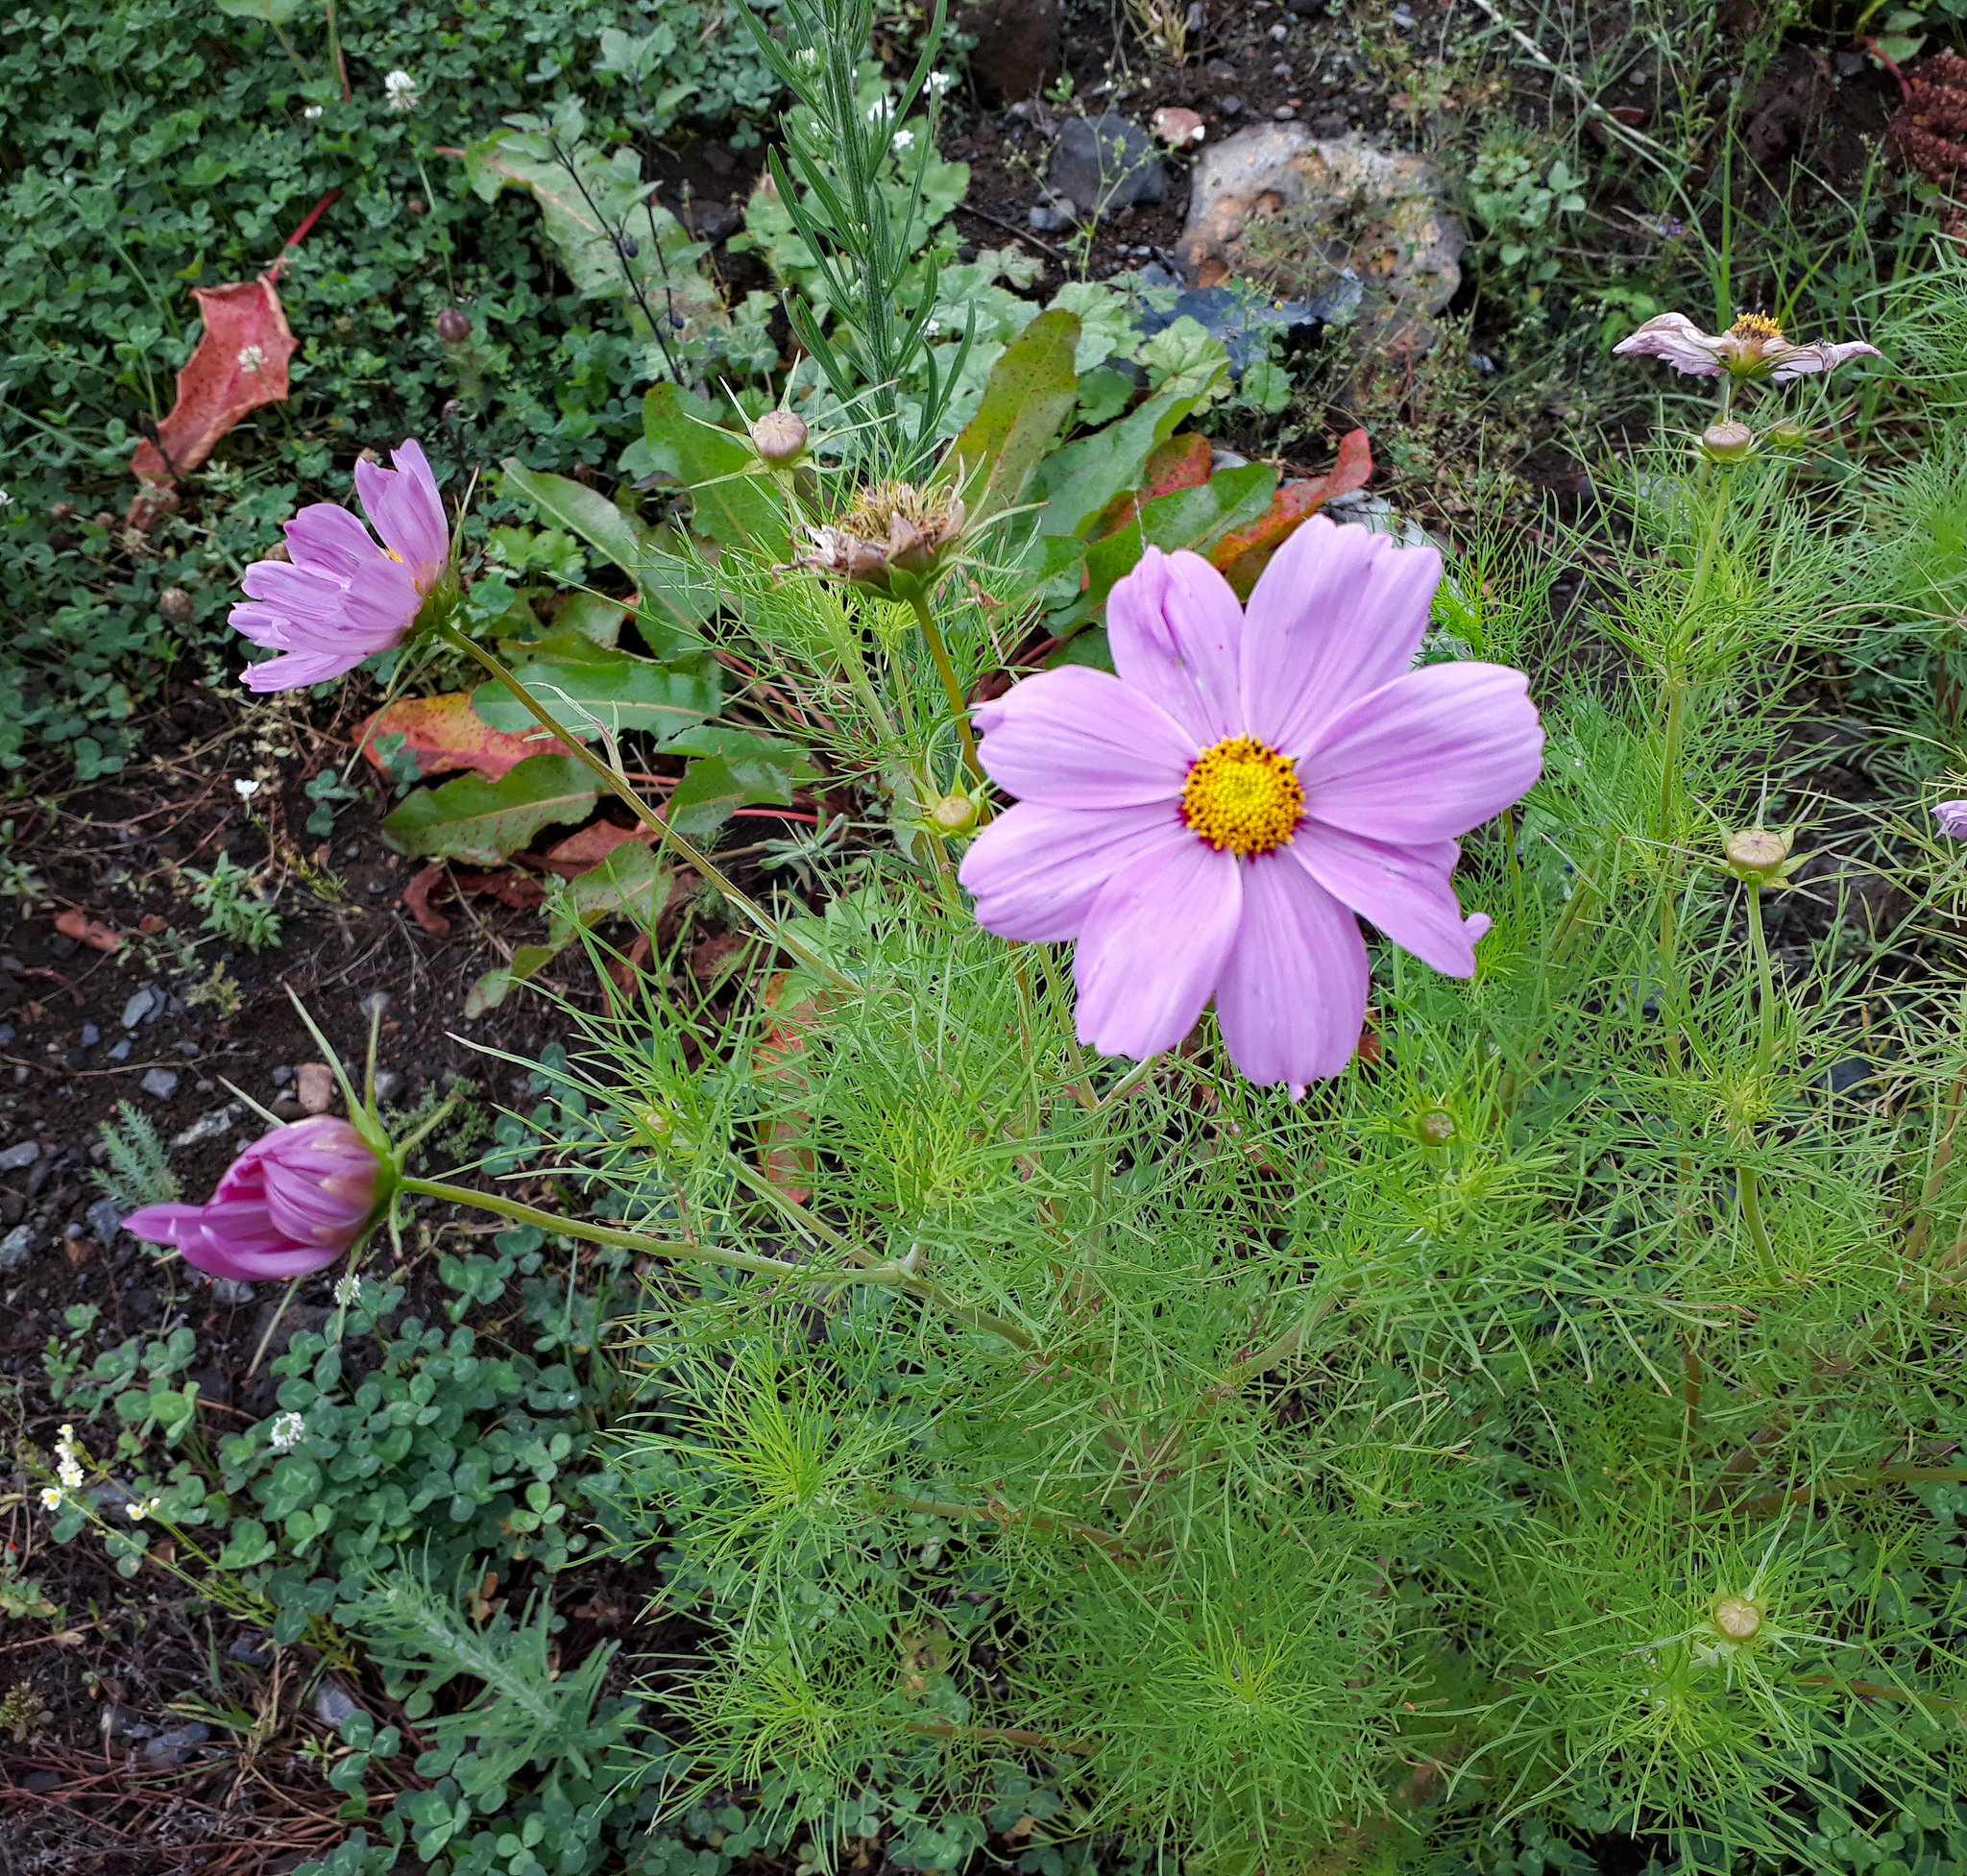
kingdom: Plantae
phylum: Tracheophyta
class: Magnoliopsida
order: Asterales
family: Asteraceae
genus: Cosmos
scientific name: Cosmos bipinnatus
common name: Garden cosmos
